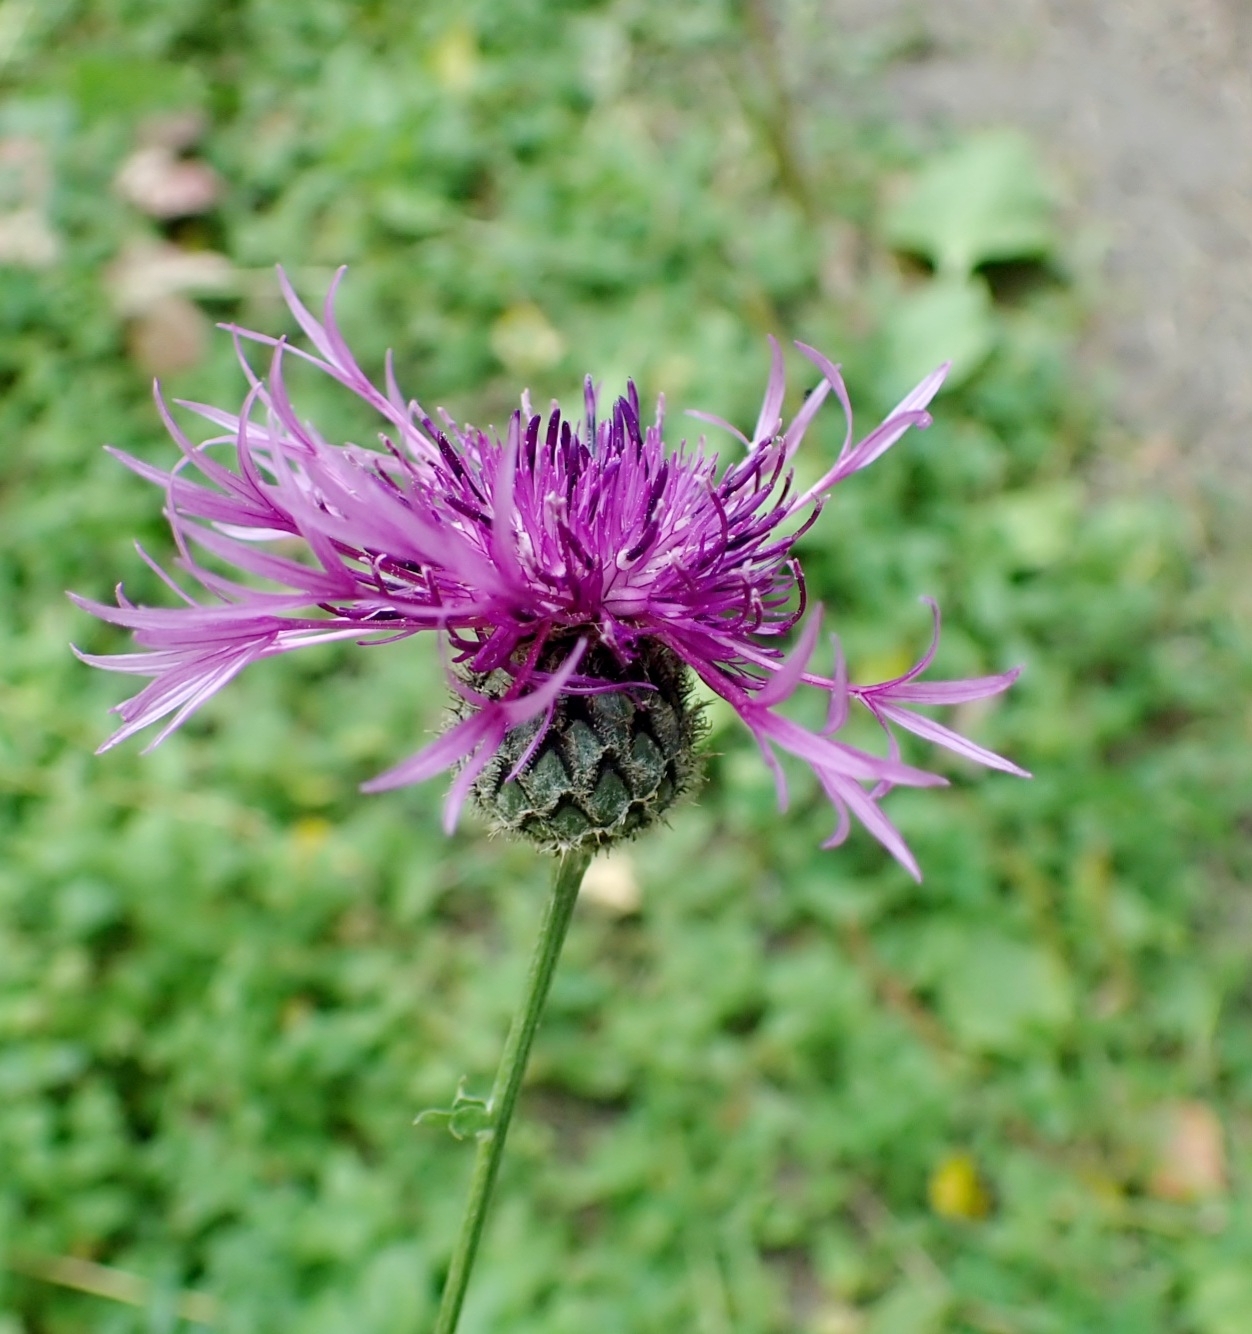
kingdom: Plantae
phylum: Tracheophyta
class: Magnoliopsida
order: Asterales
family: Asteraceae
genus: Centaurea
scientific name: Centaurea scabiosa
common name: Greater knapweed
